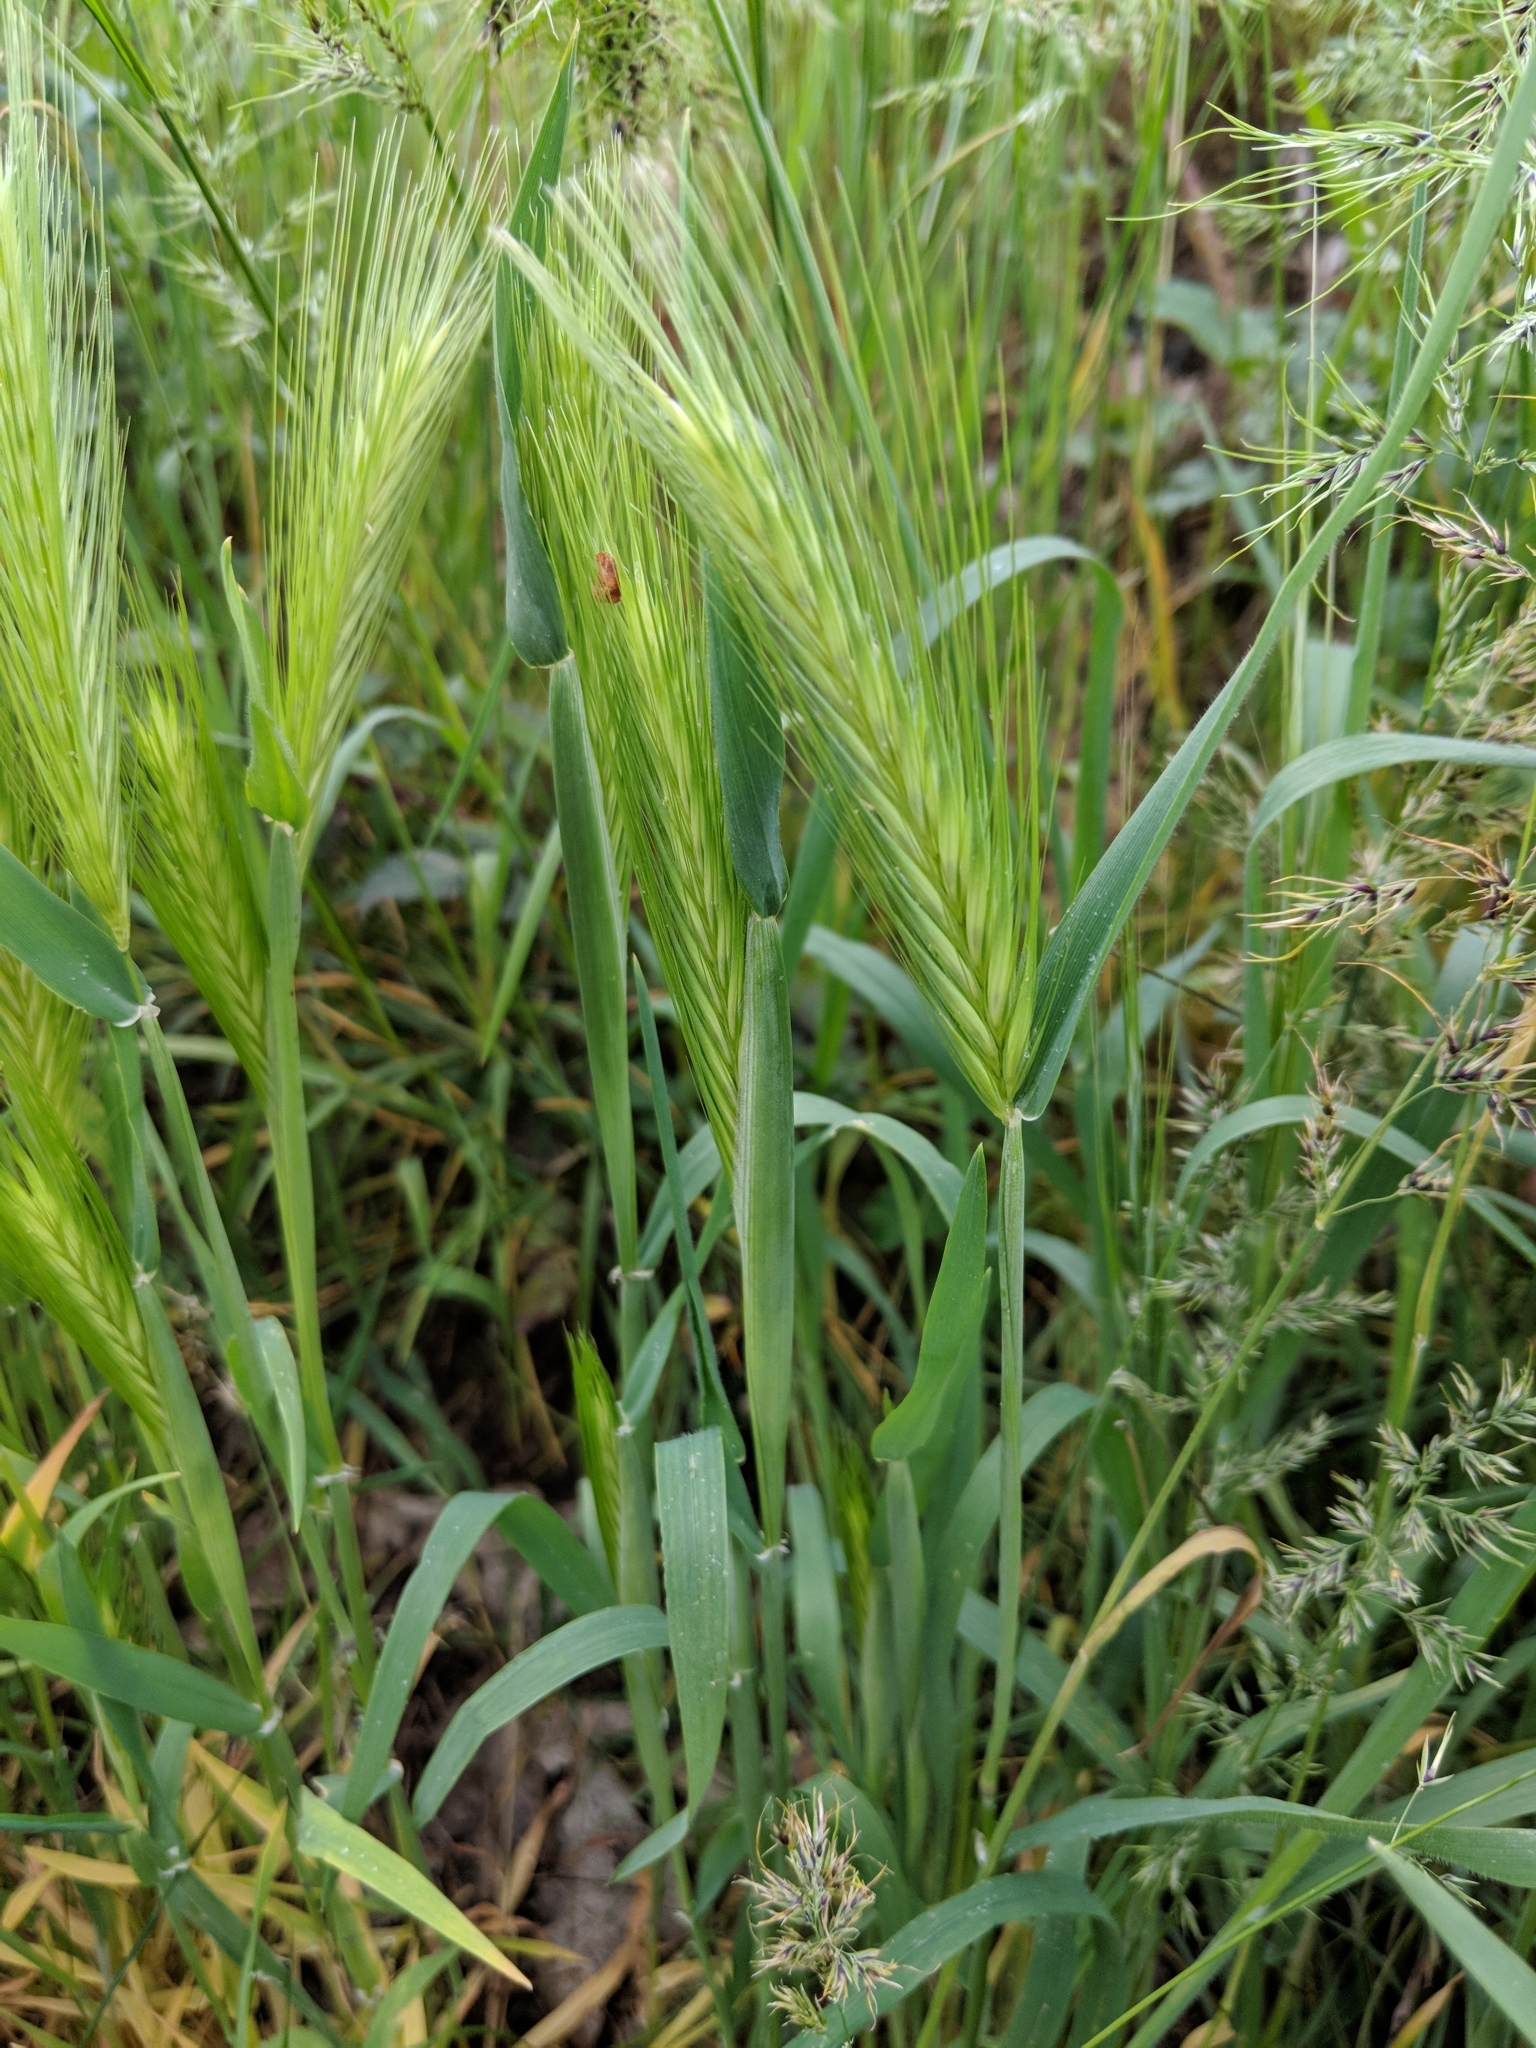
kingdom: Plantae
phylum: Tracheophyta
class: Liliopsida
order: Poales
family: Poaceae
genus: Hordeum
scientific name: Hordeum murinum
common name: Wall barley
